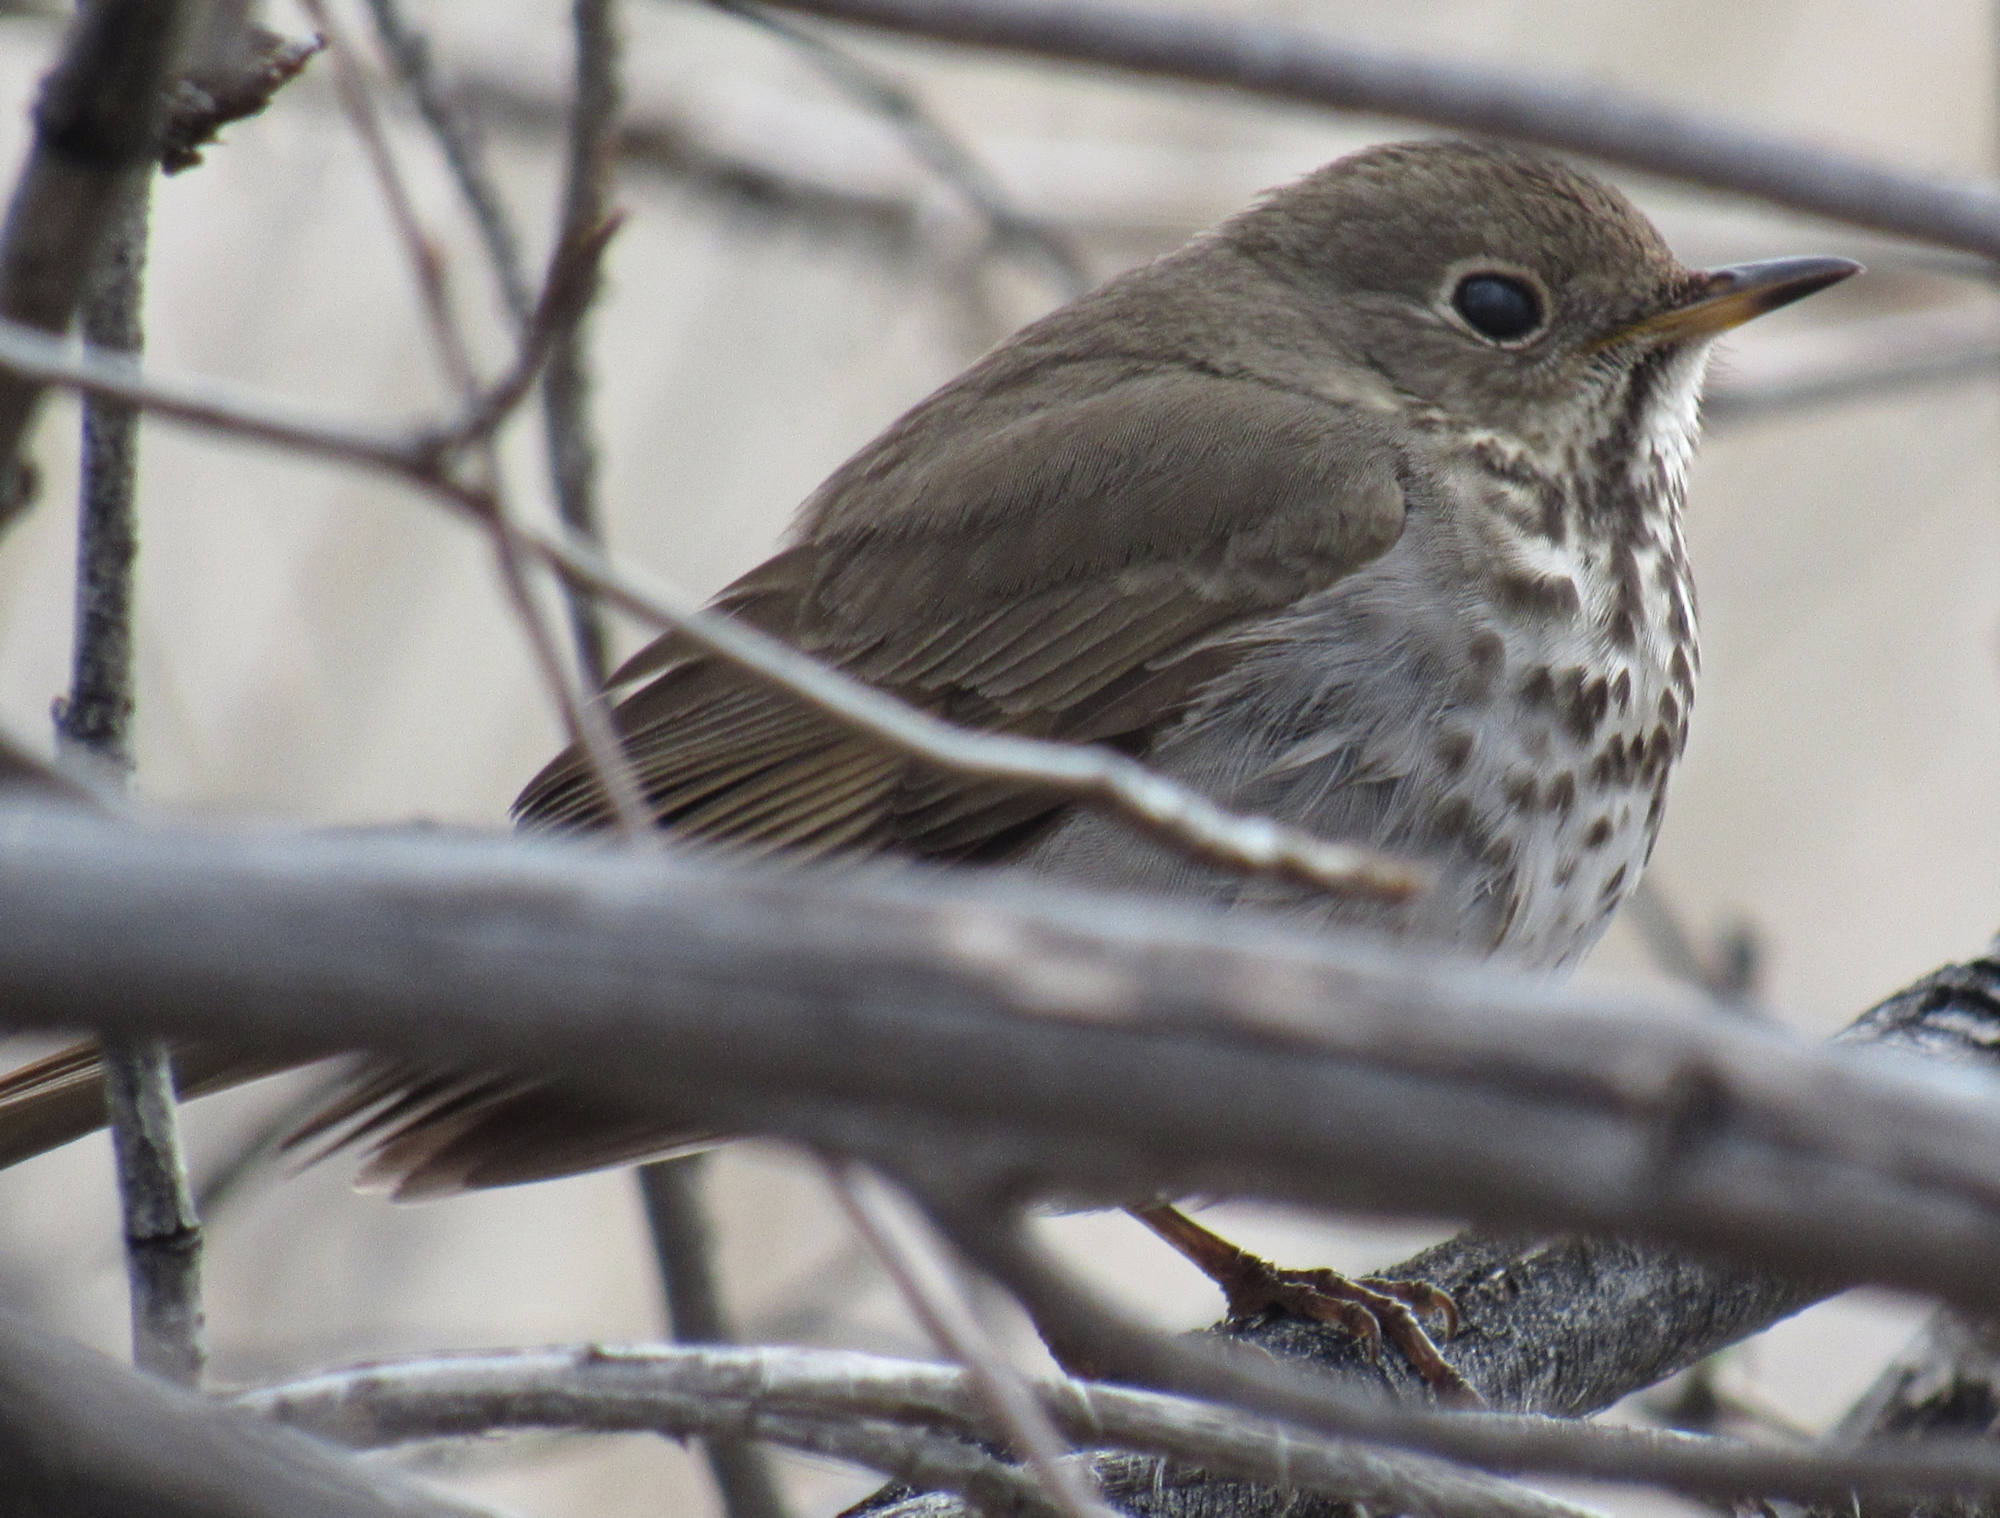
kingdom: Animalia
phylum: Chordata
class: Aves
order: Passeriformes
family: Turdidae
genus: Catharus
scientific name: Catharus guttatus
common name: Hermit thrush
